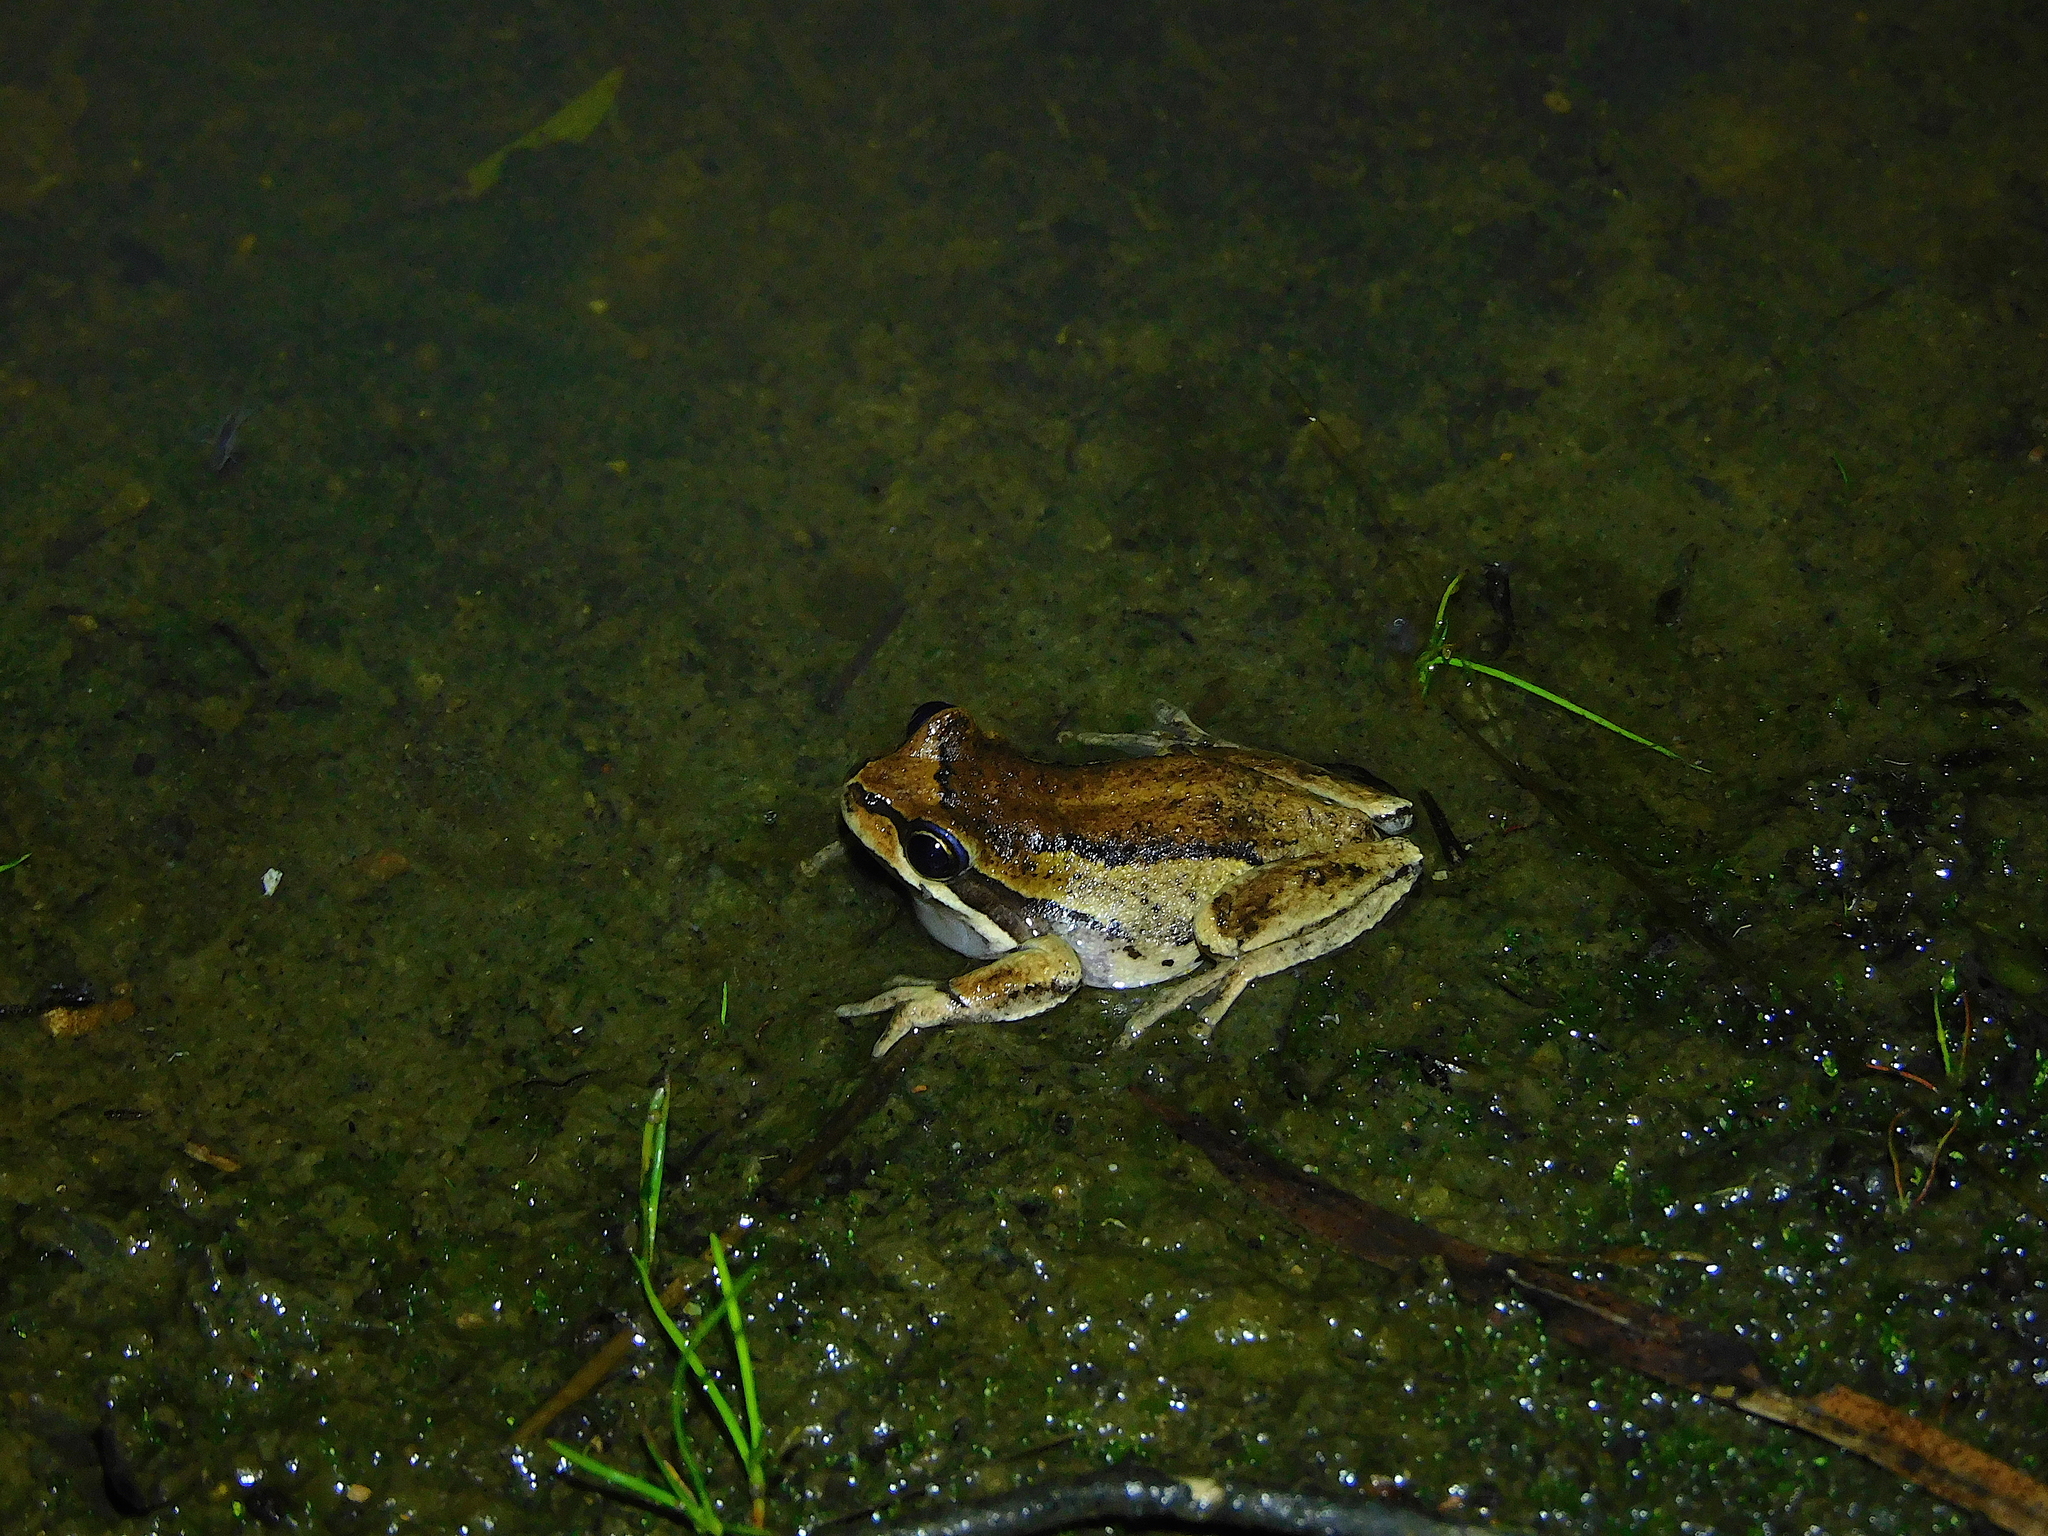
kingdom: Animalia
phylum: Chordata
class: Amphibia
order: Anura
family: Pelodryadidae
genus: Litoria
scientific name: Litoria ewingii
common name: Southern brown tree frog
